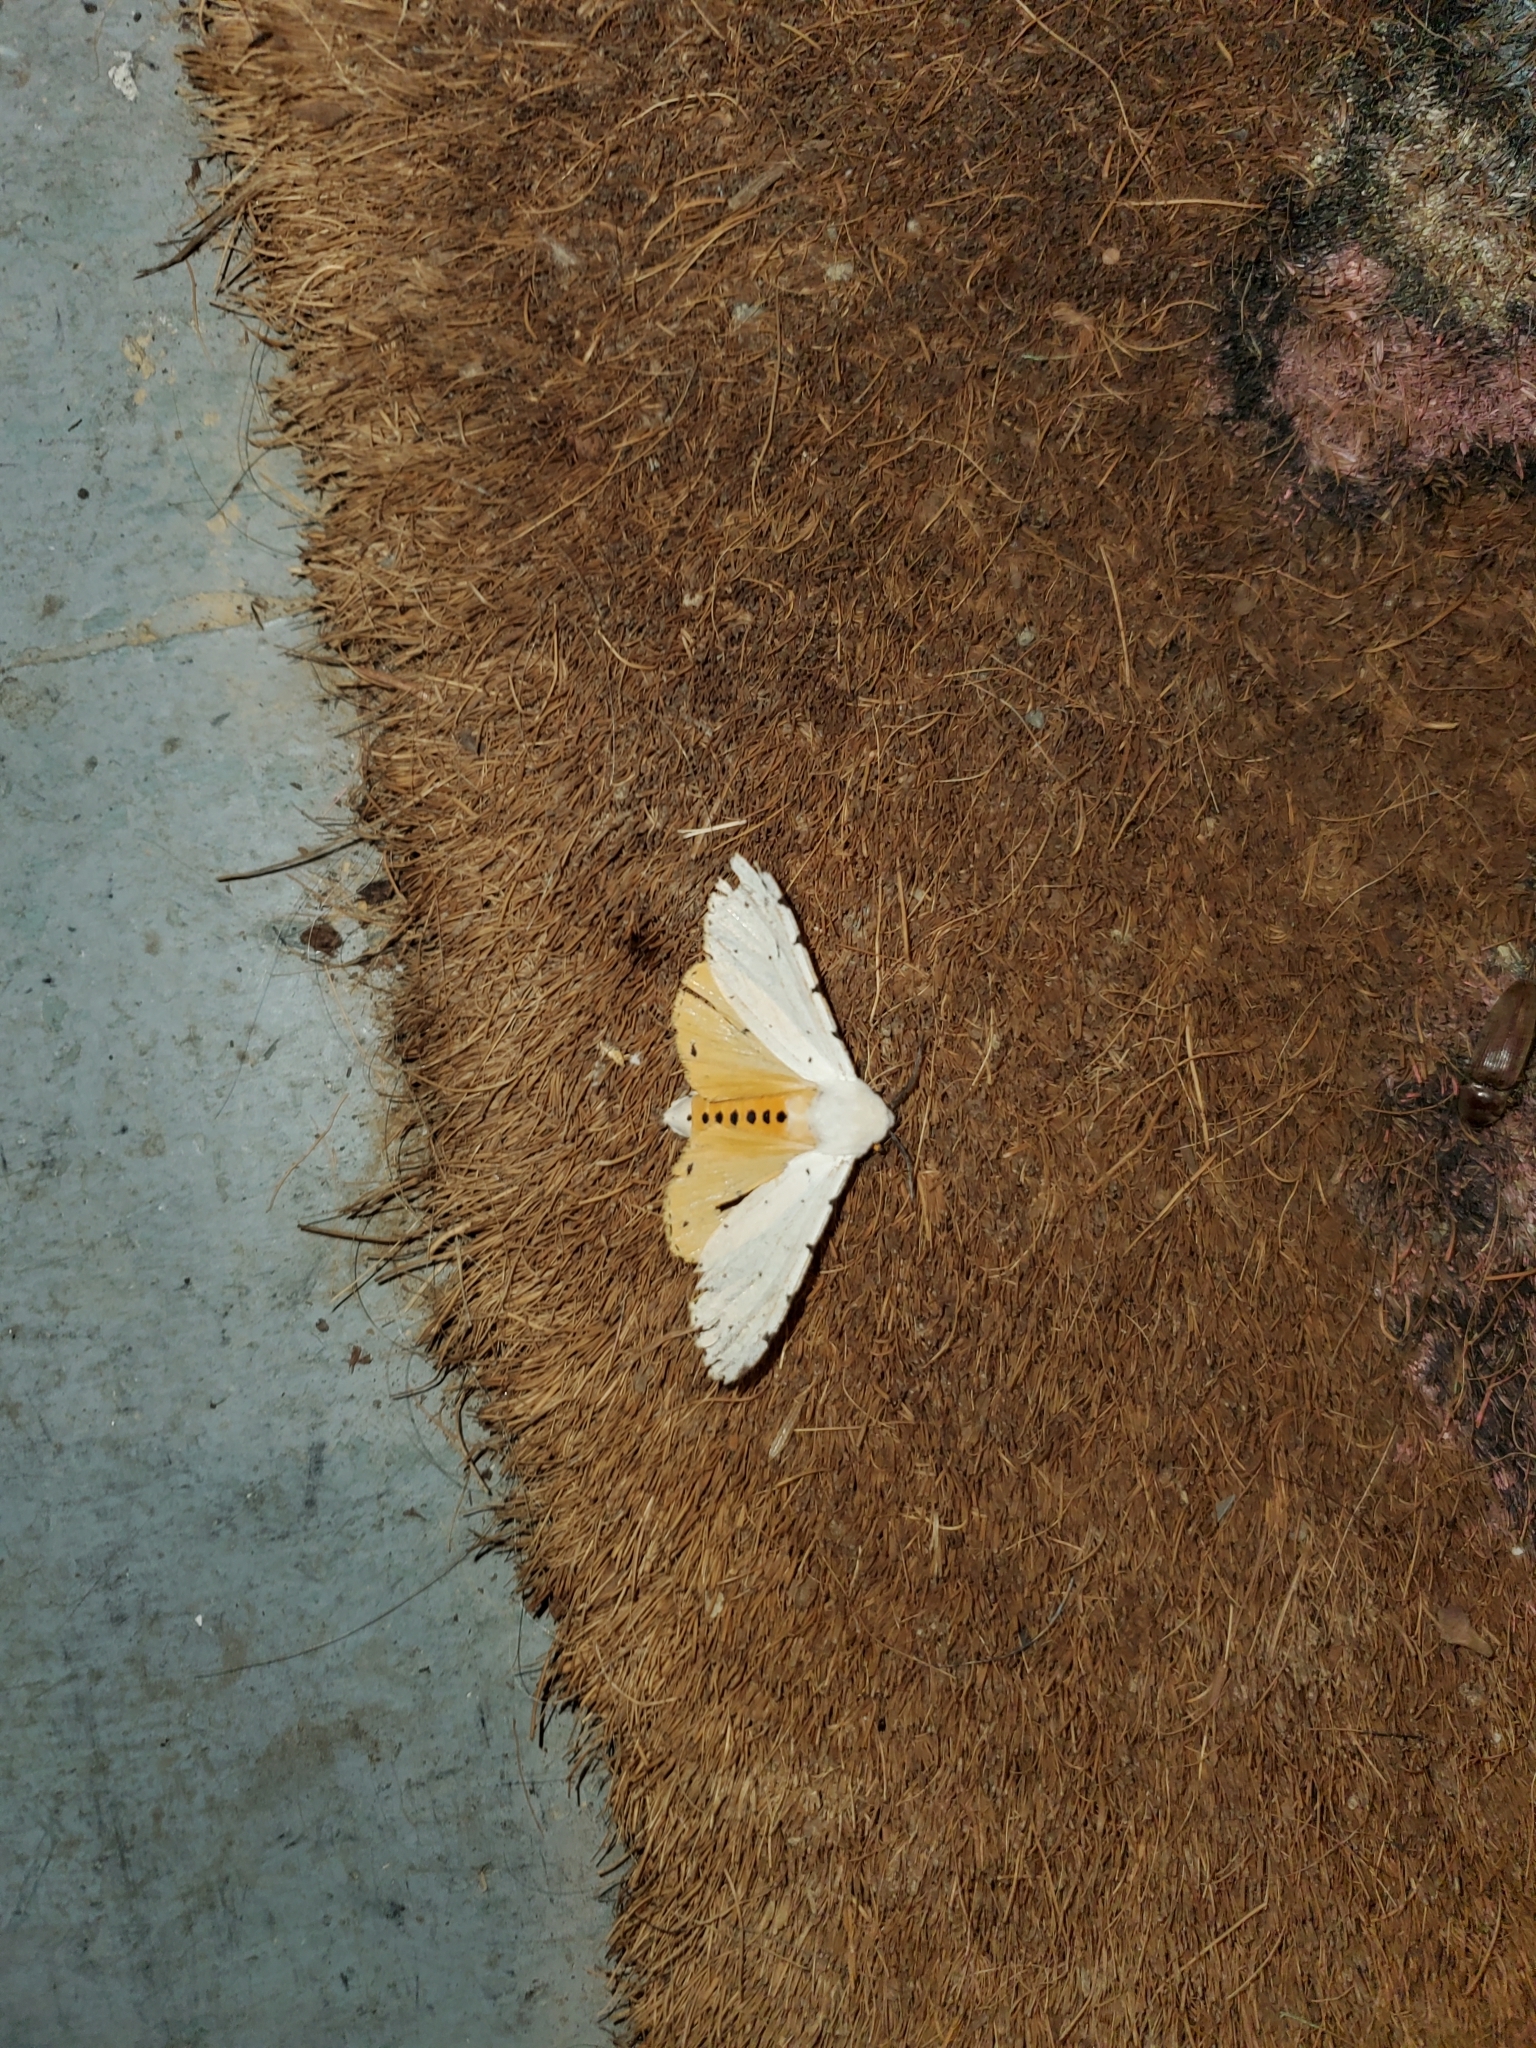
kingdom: Animalia
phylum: Arthropoda
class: Insecta
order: Lepidoptera
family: Erebidae
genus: Estigmene
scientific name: Estigmene acrea
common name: Salt marsh moth
